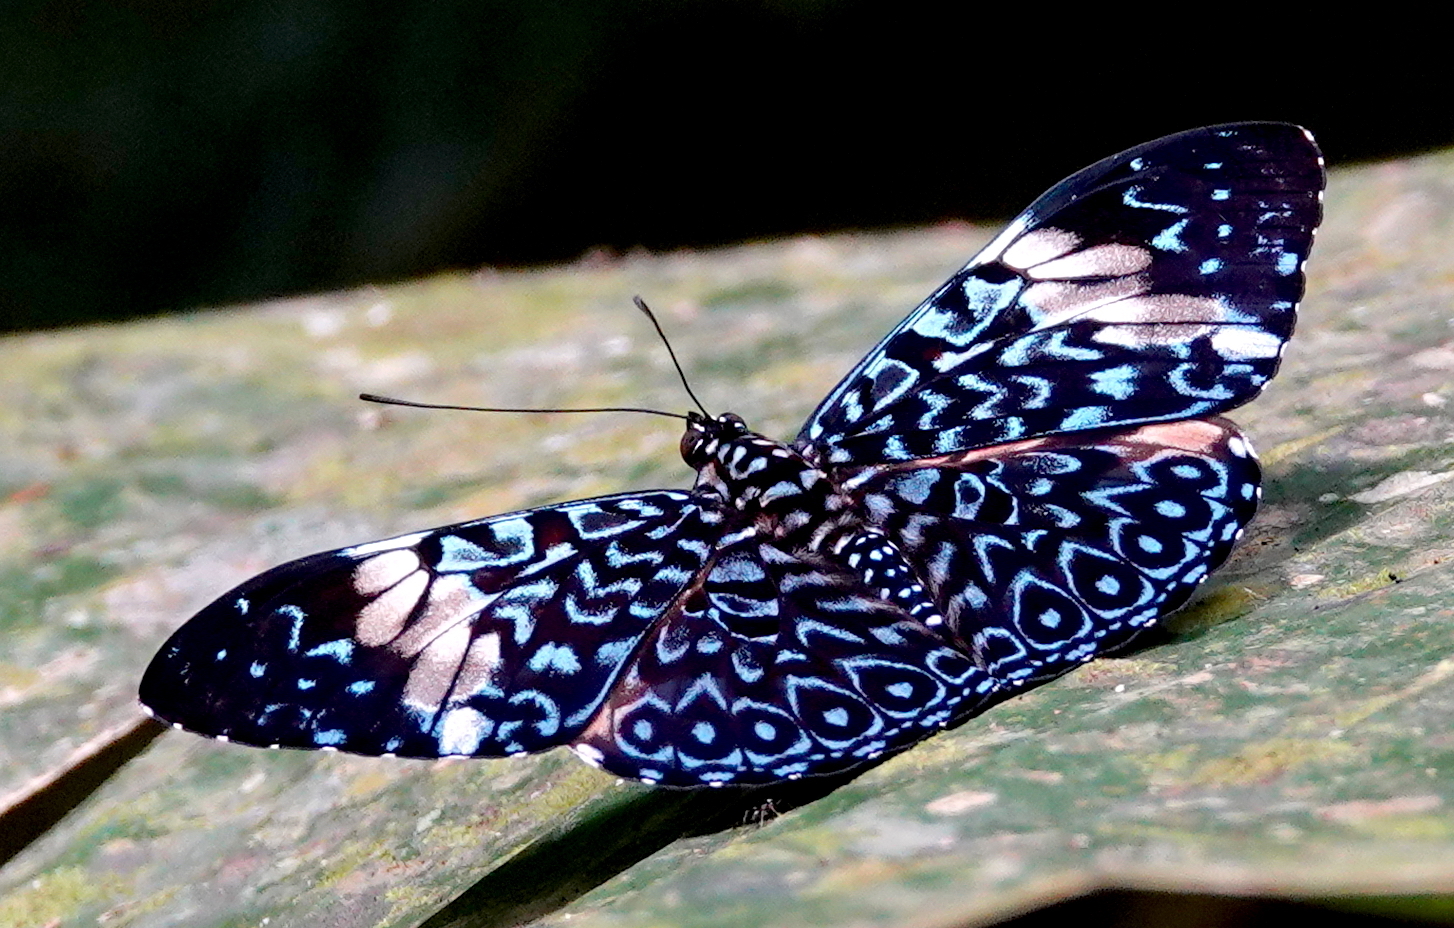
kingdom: Animalia
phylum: Arthropoda
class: Insecta
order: Lepidoptera
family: Nymphalidae
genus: Hamadryas
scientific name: Hamadryas arinome
